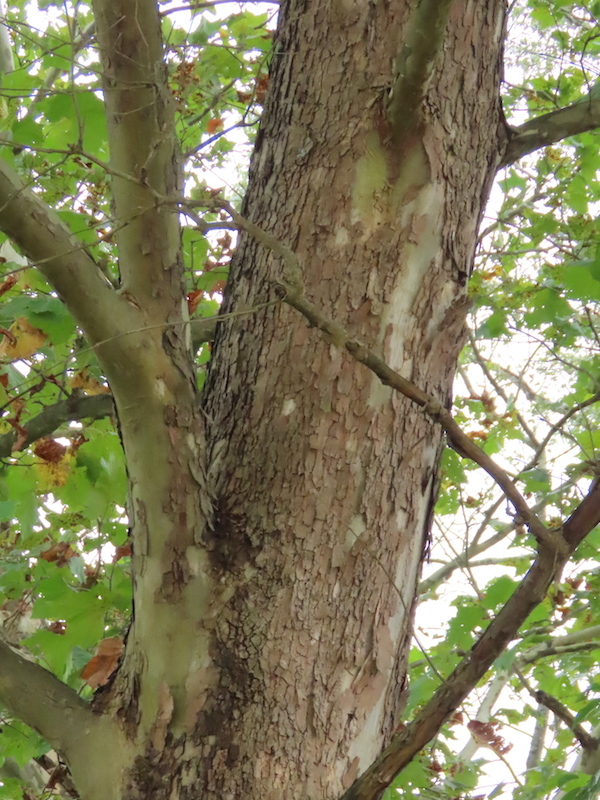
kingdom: Plantae
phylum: Tracheophyta
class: Magnoliopsida
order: Proteales
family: Platanaceae
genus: Platanus
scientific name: Platanus occidentalis
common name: American sycamore
